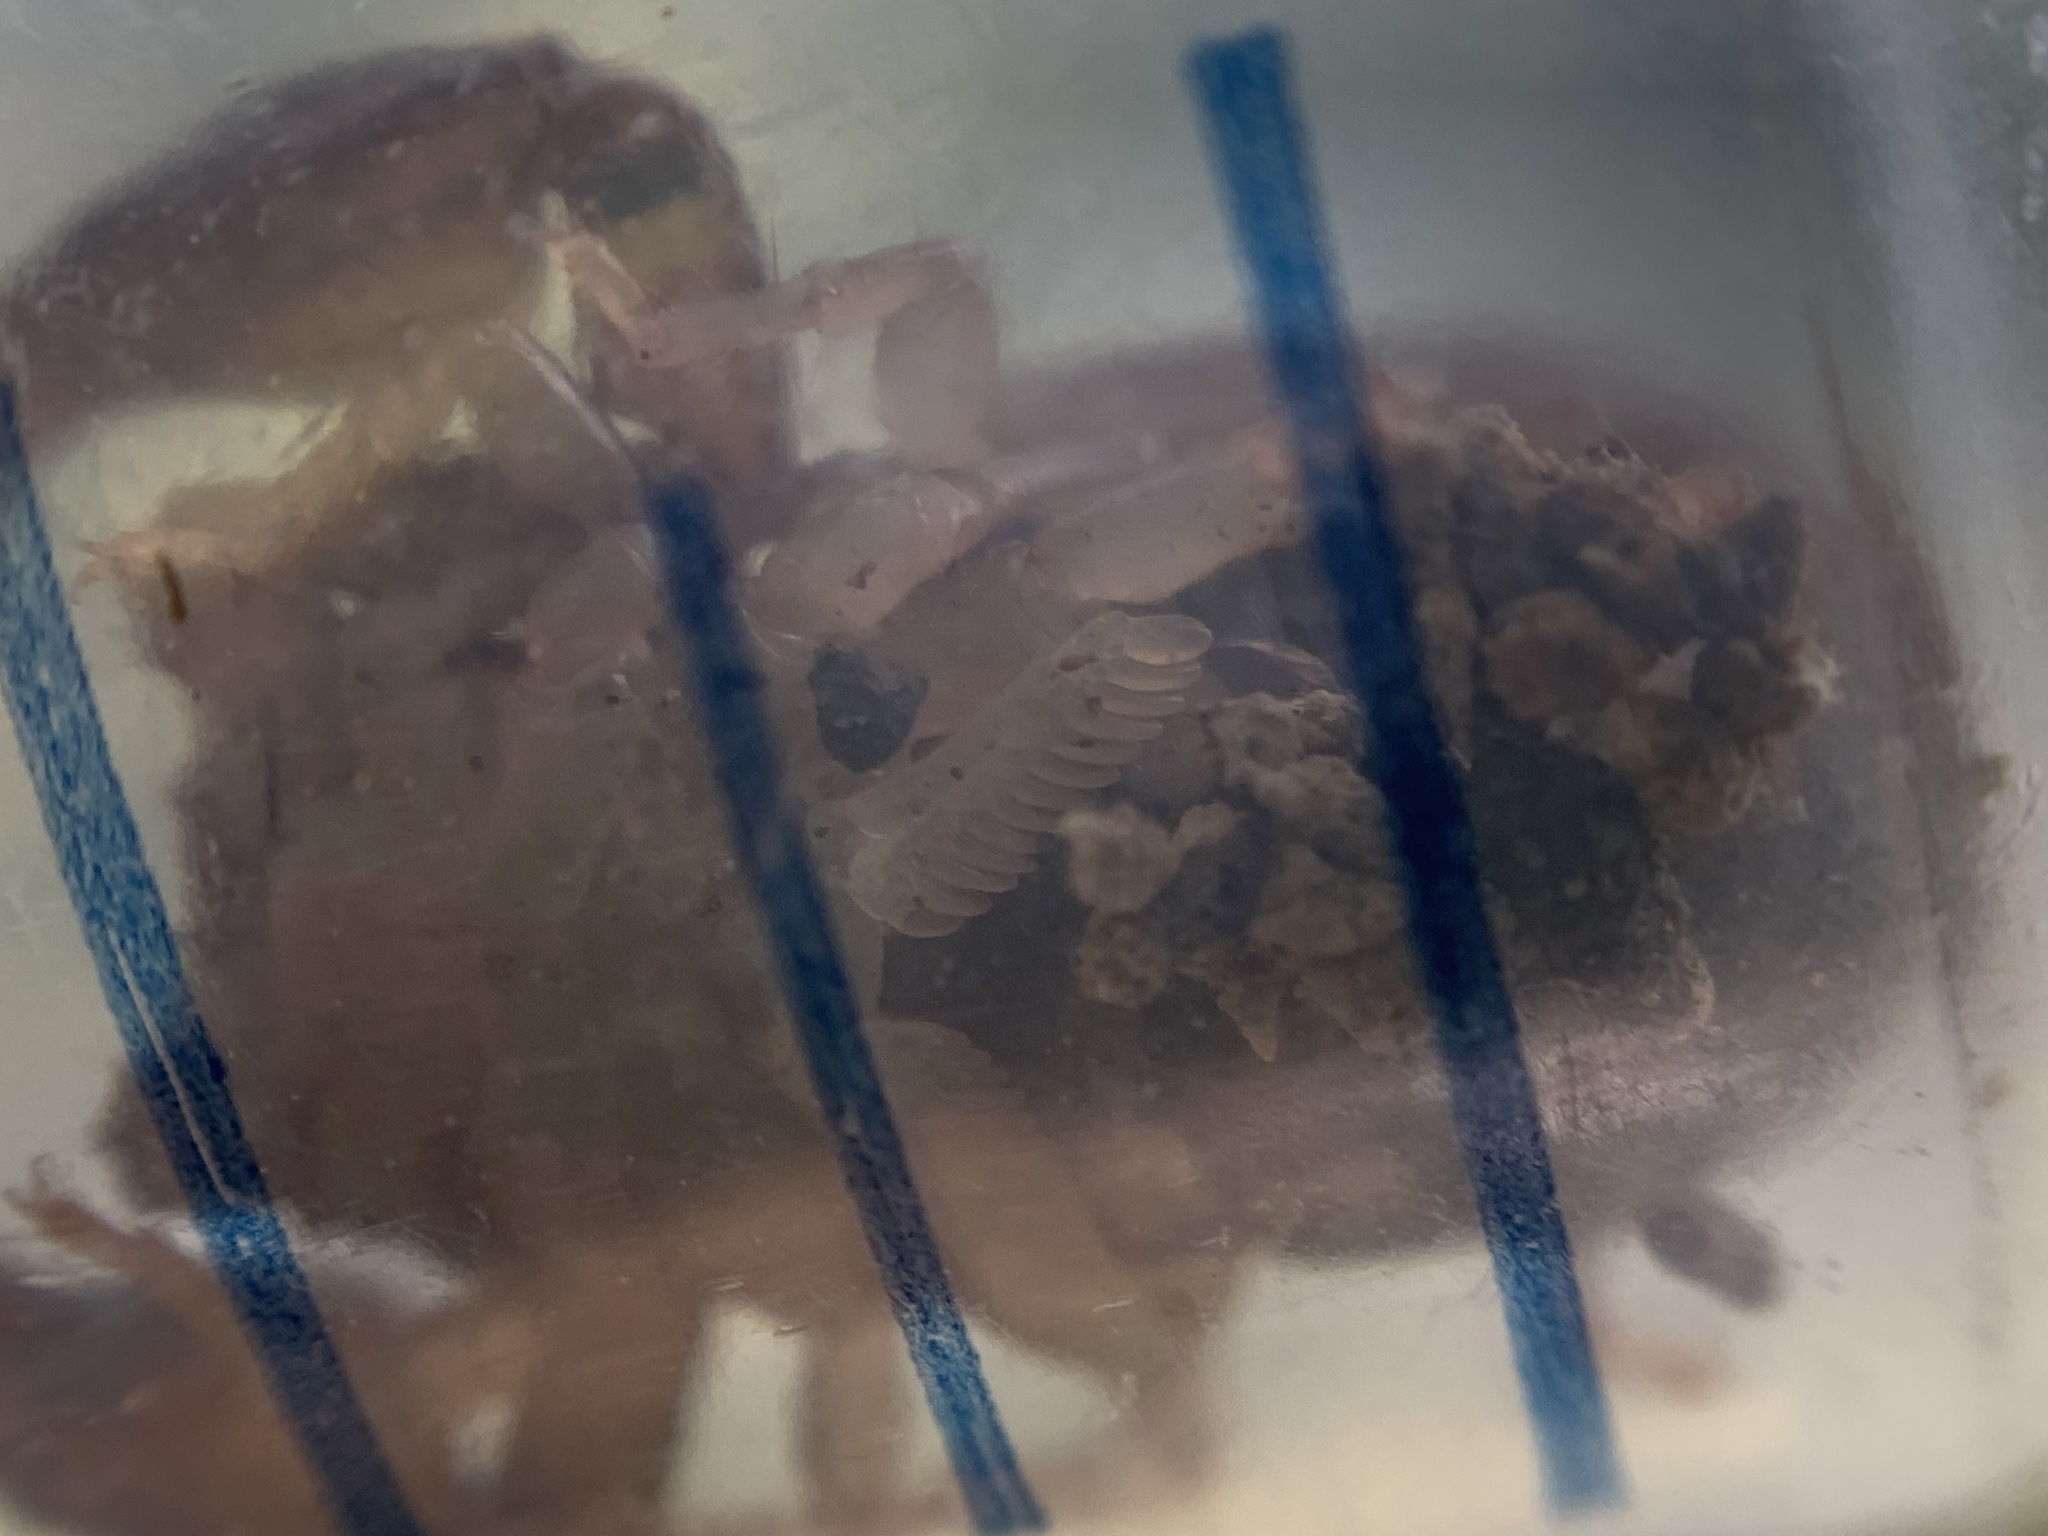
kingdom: Animalia
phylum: Arthropoda
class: Arachnida
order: Scorpiones
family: Chactidae
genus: Uroctonus
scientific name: Uroctonus mordax
